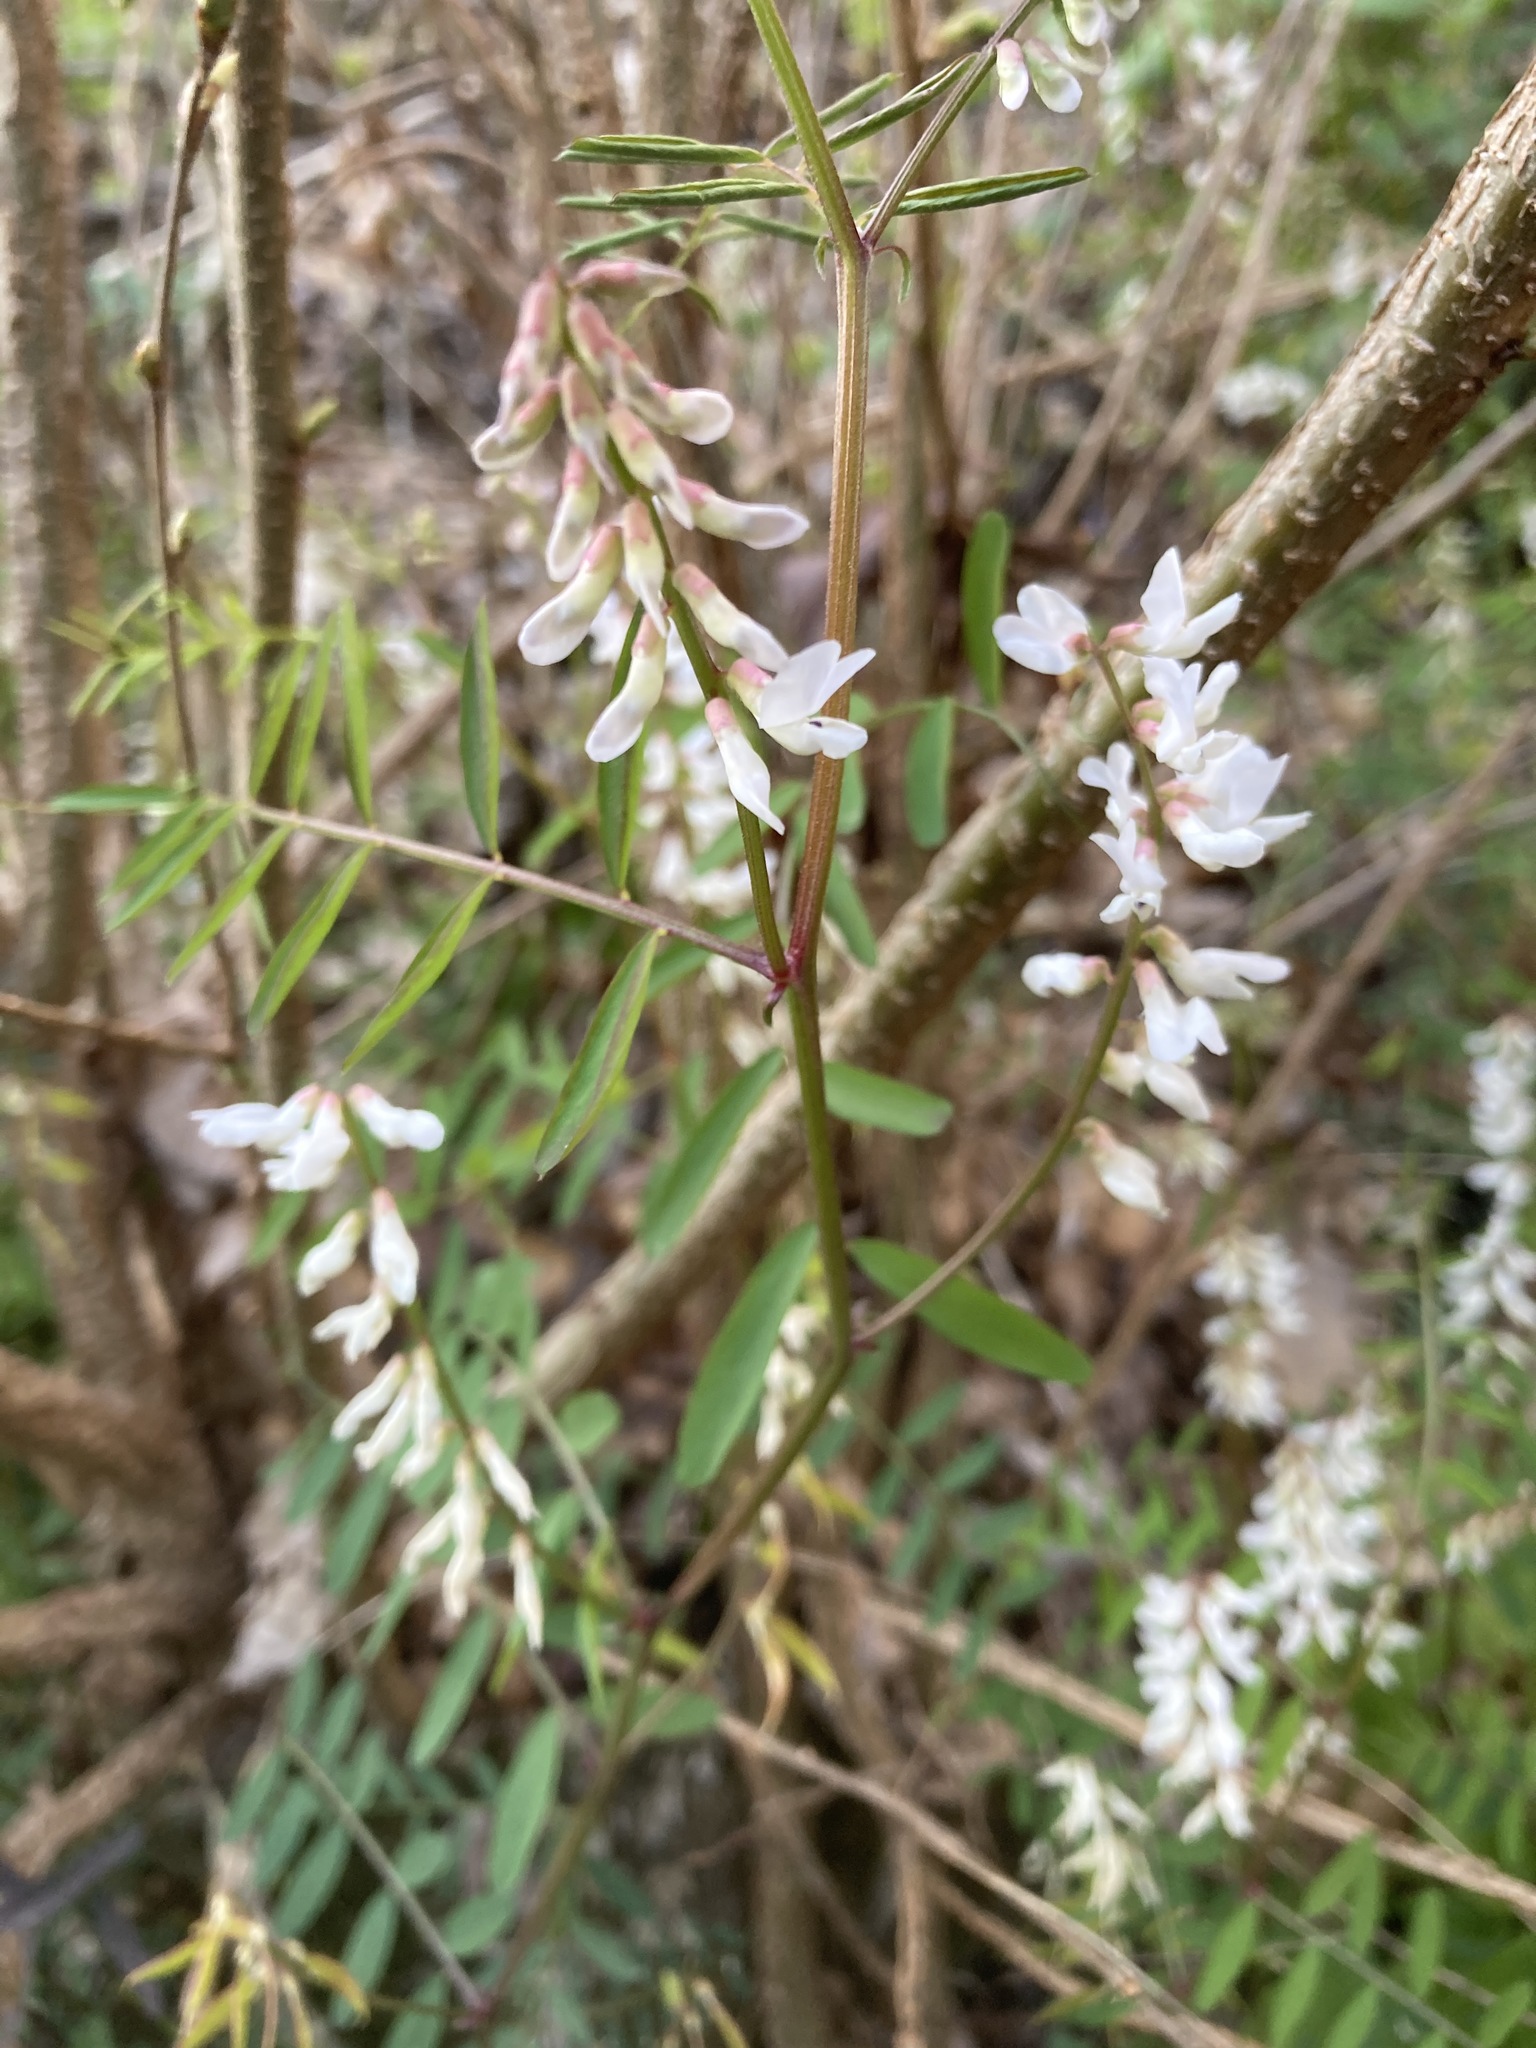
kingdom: Plantae
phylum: Tracheophyta
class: Magnoliopsida
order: Fabales
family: Fabaceae
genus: Vicia
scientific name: Vicia caroliniana
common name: Carolina vetch
